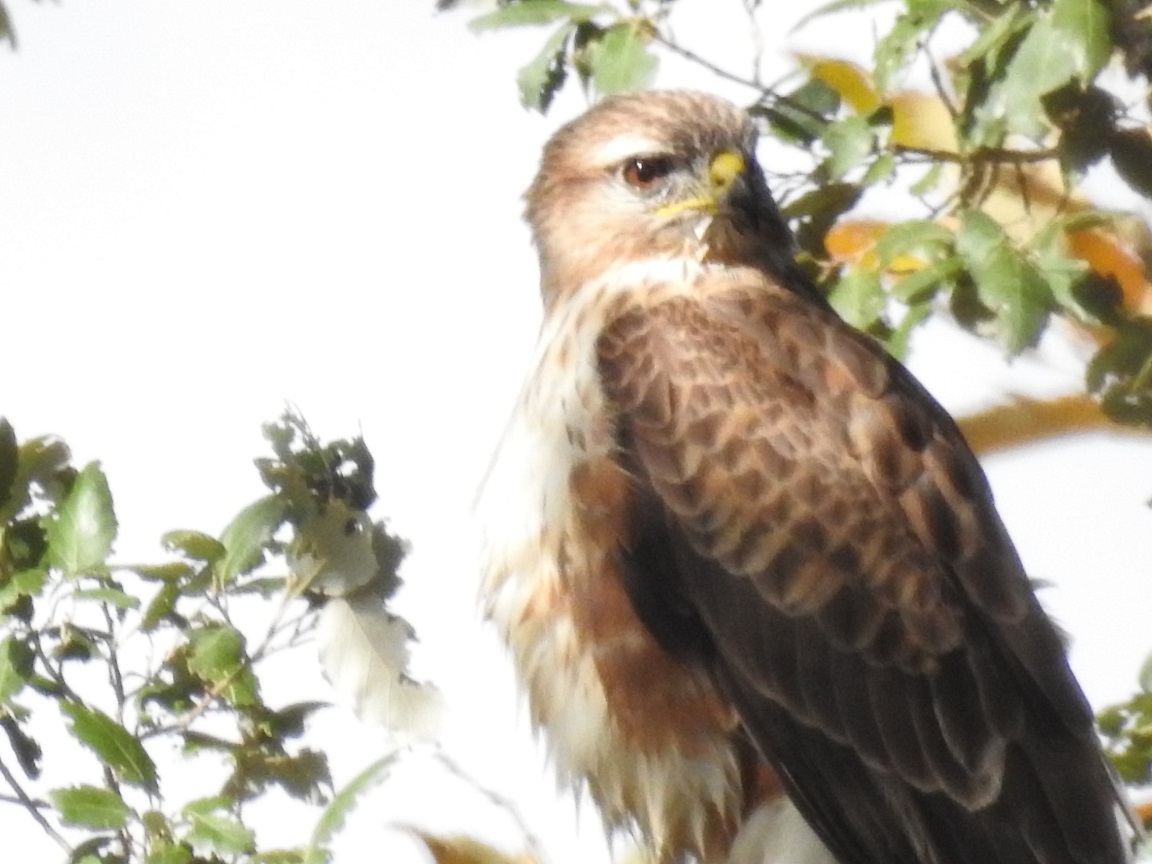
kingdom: Animalia
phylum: Chordata
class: Aves
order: Accipitriformes
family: Accipitridae
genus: Buteo
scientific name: Buteo rufinus
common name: Long-legged buzzard
